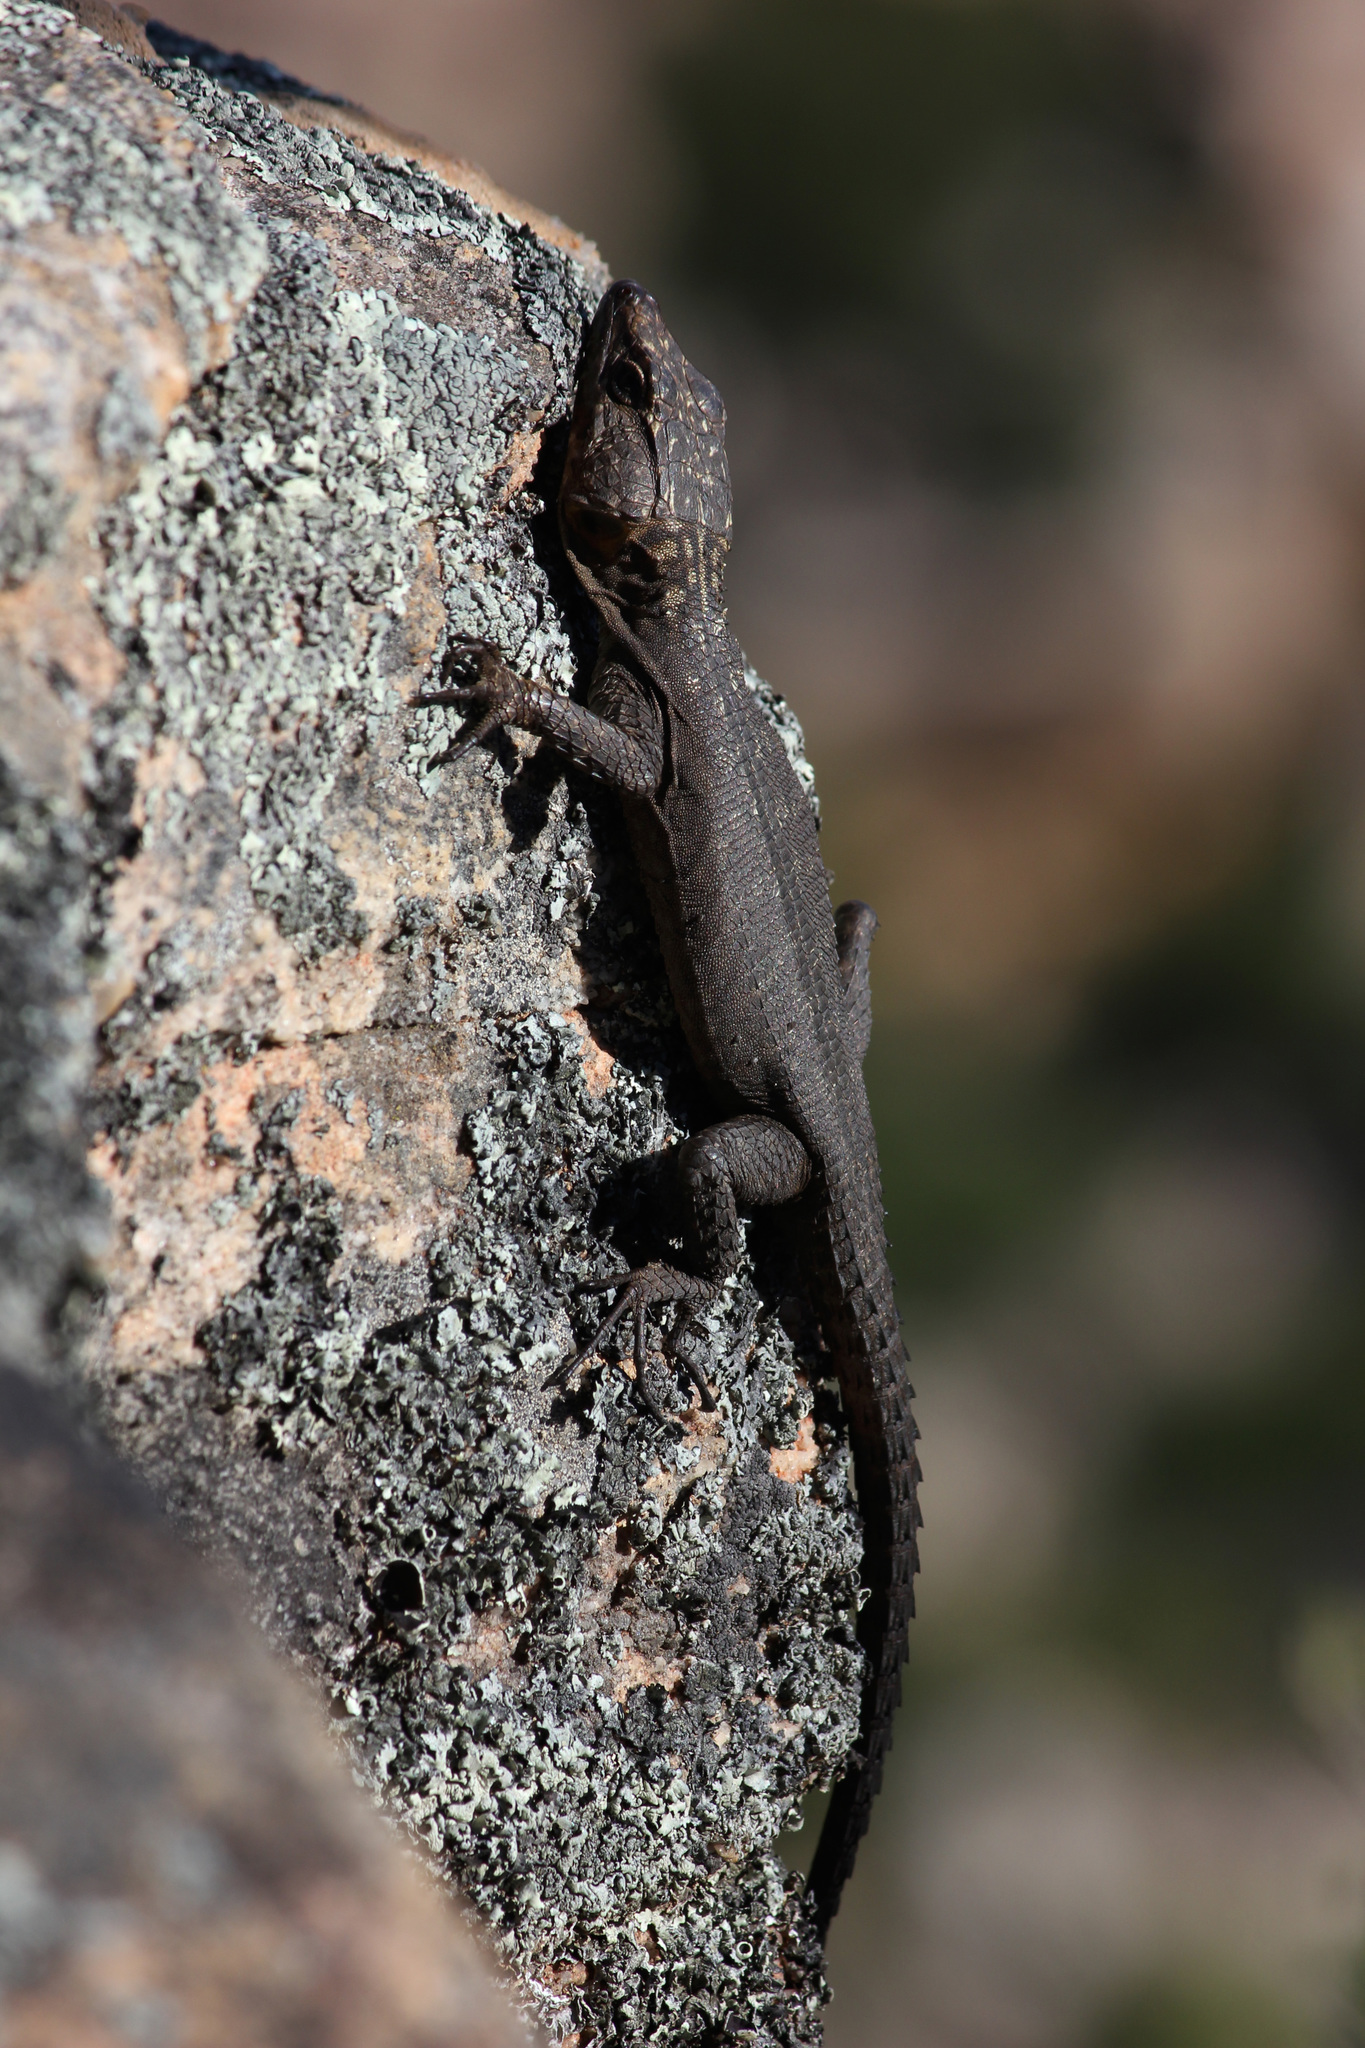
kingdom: Animalia
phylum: Chordata
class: Squamata
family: Cordylidae
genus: Hemicordylus
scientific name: Hemicordylus capensis
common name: Graceful crag lizard
